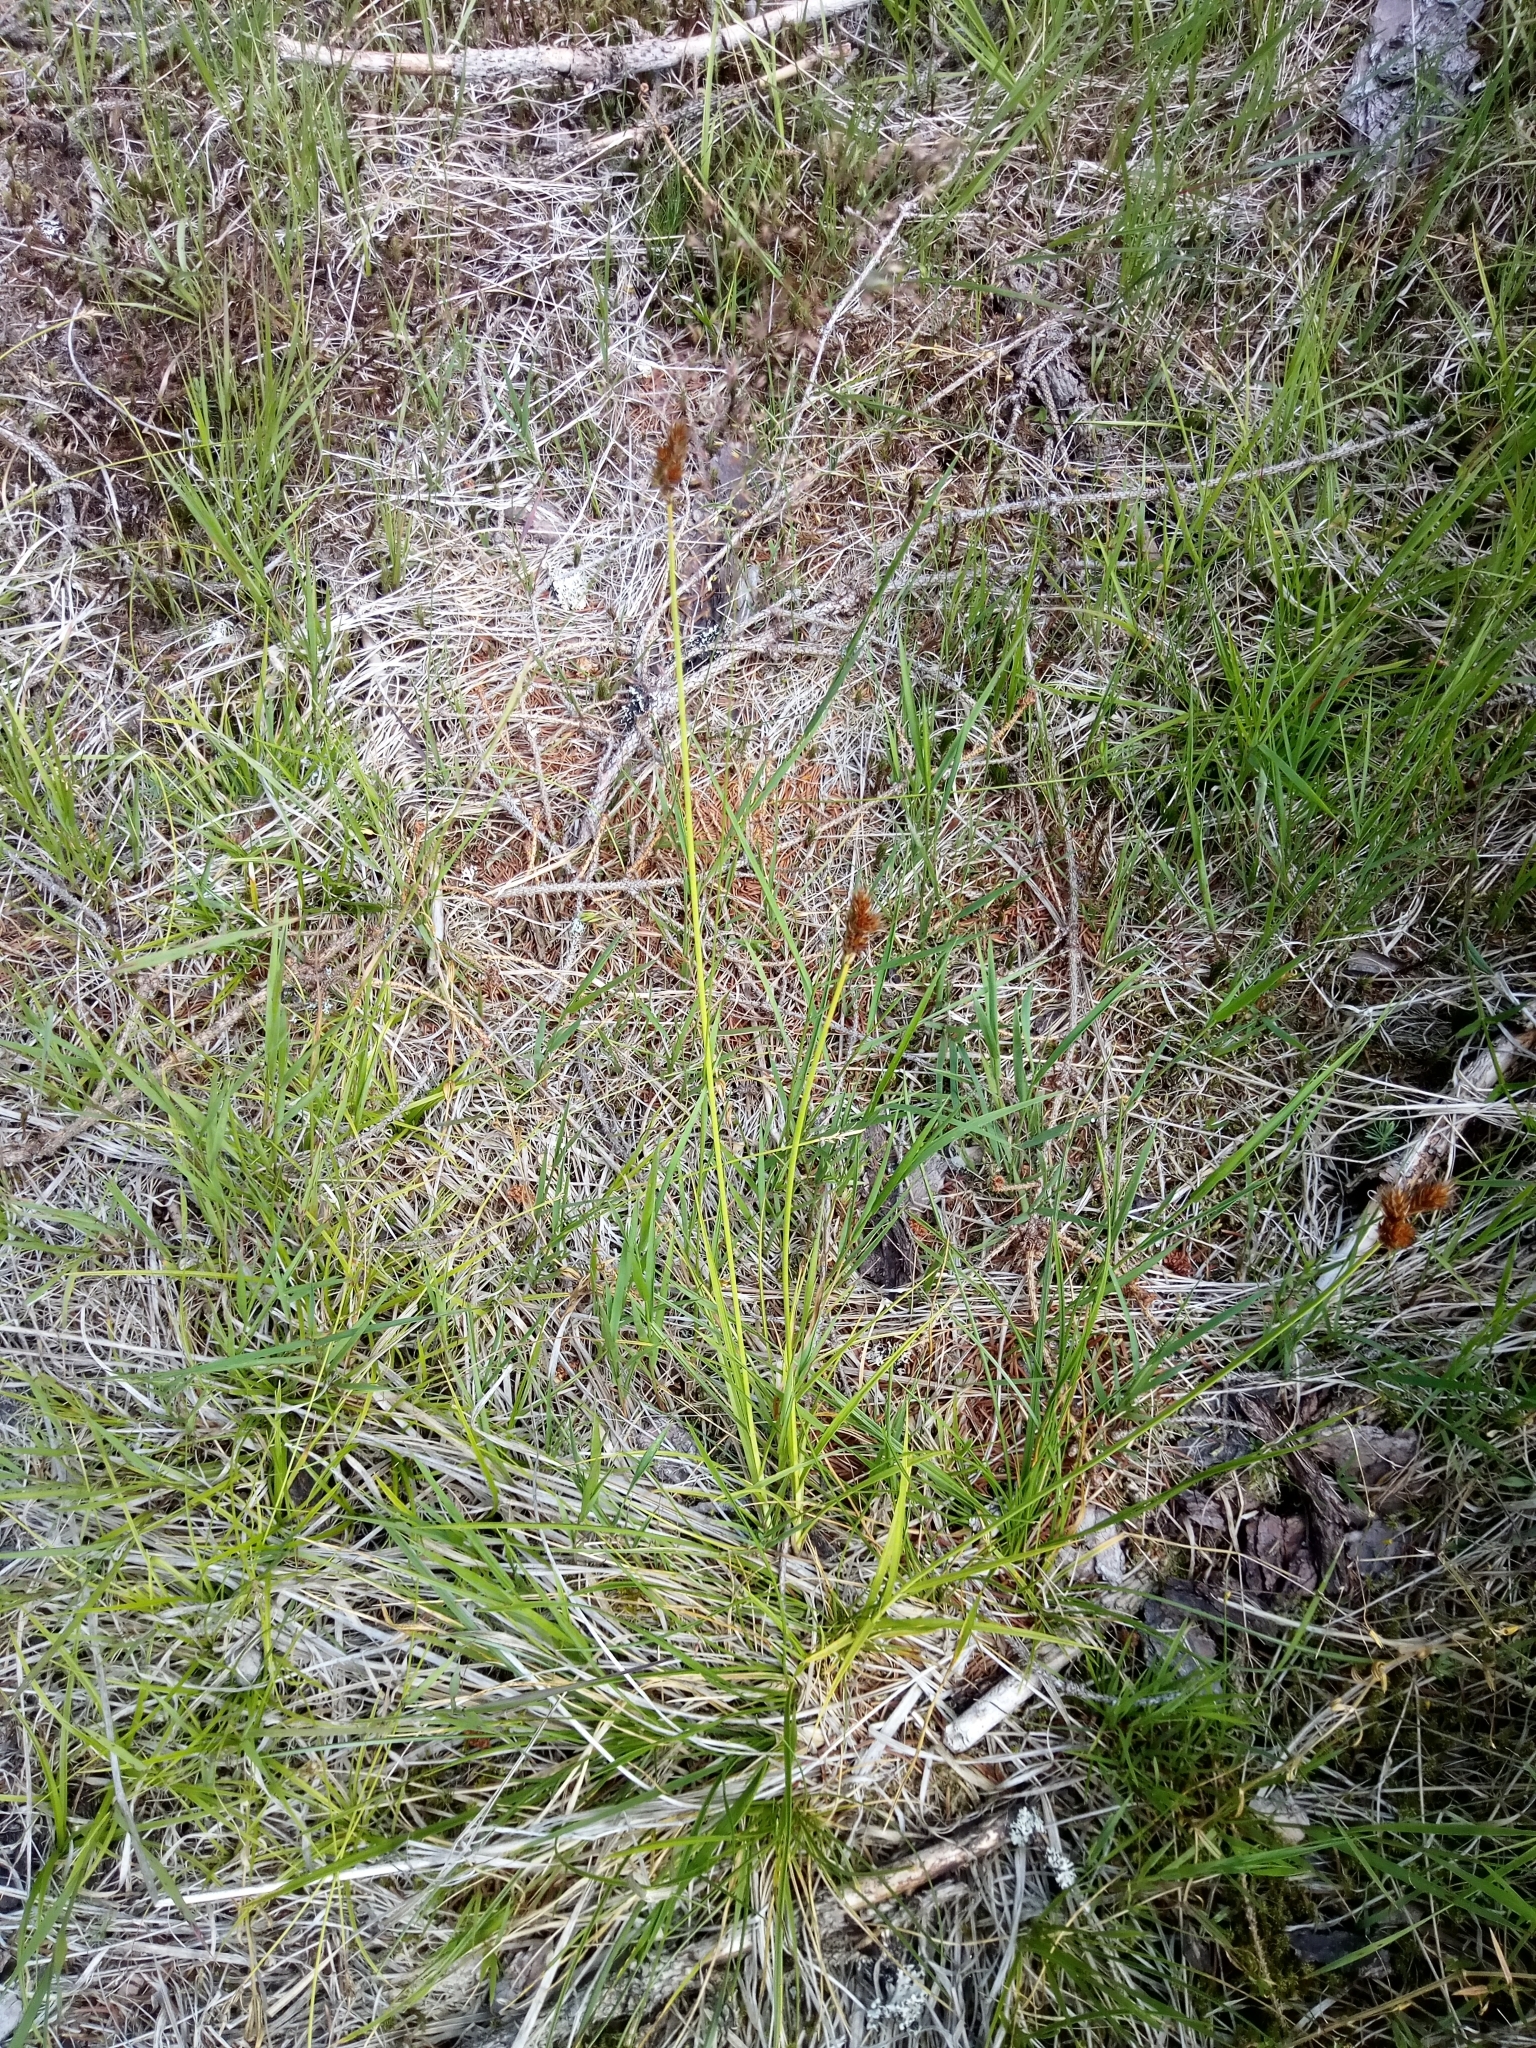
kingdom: Plantae
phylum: Tracheophyta
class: Liliopsida
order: Poales
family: Cyperaceae
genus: Carex
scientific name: Carex leporina
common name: Oval sedge
